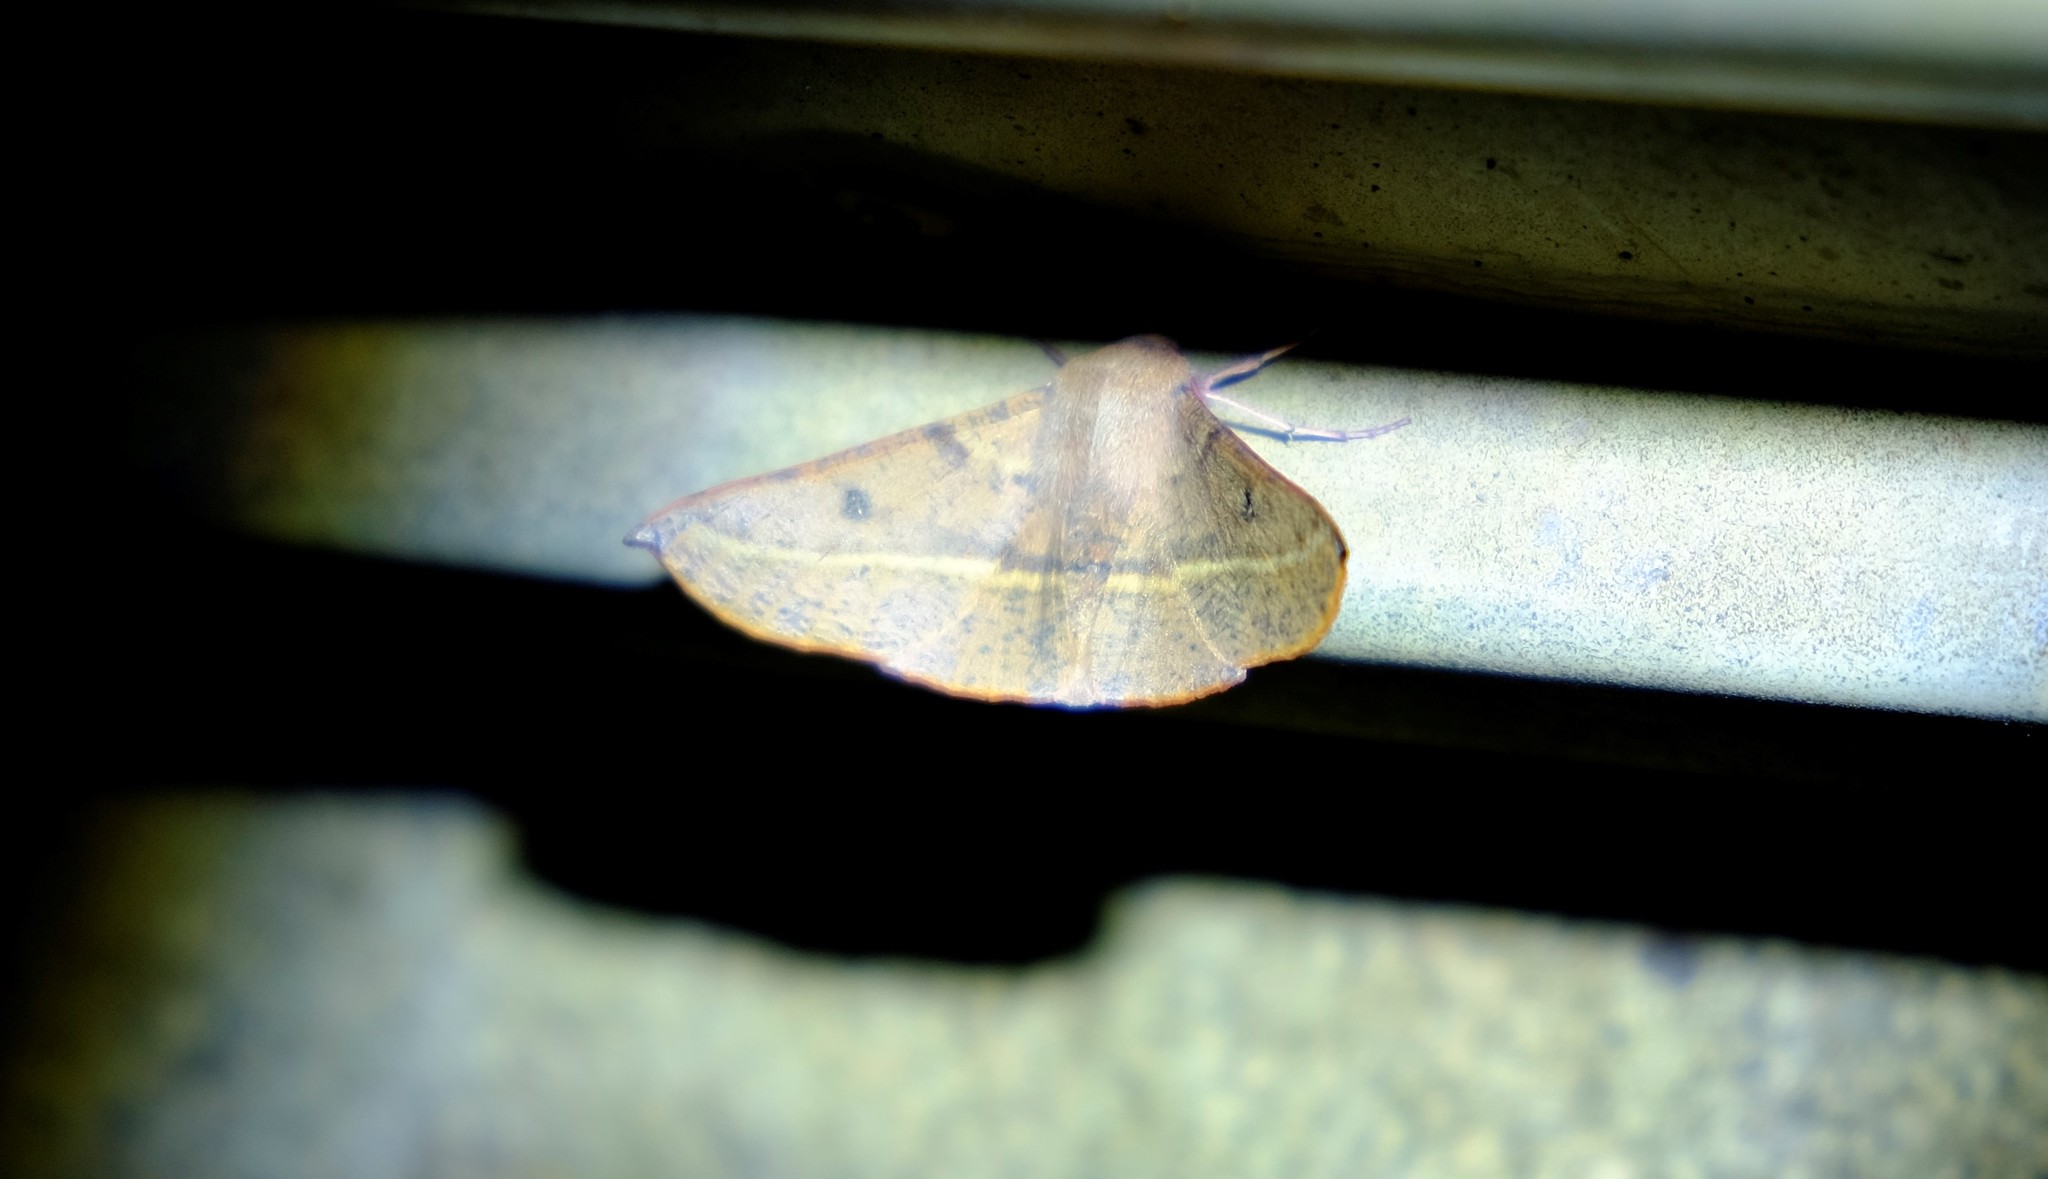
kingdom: Animalia
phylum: Arthropoda
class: Insecta
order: Lepidoptera
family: Geometridae
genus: Oenochroma
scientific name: Oenochroma vinaria
